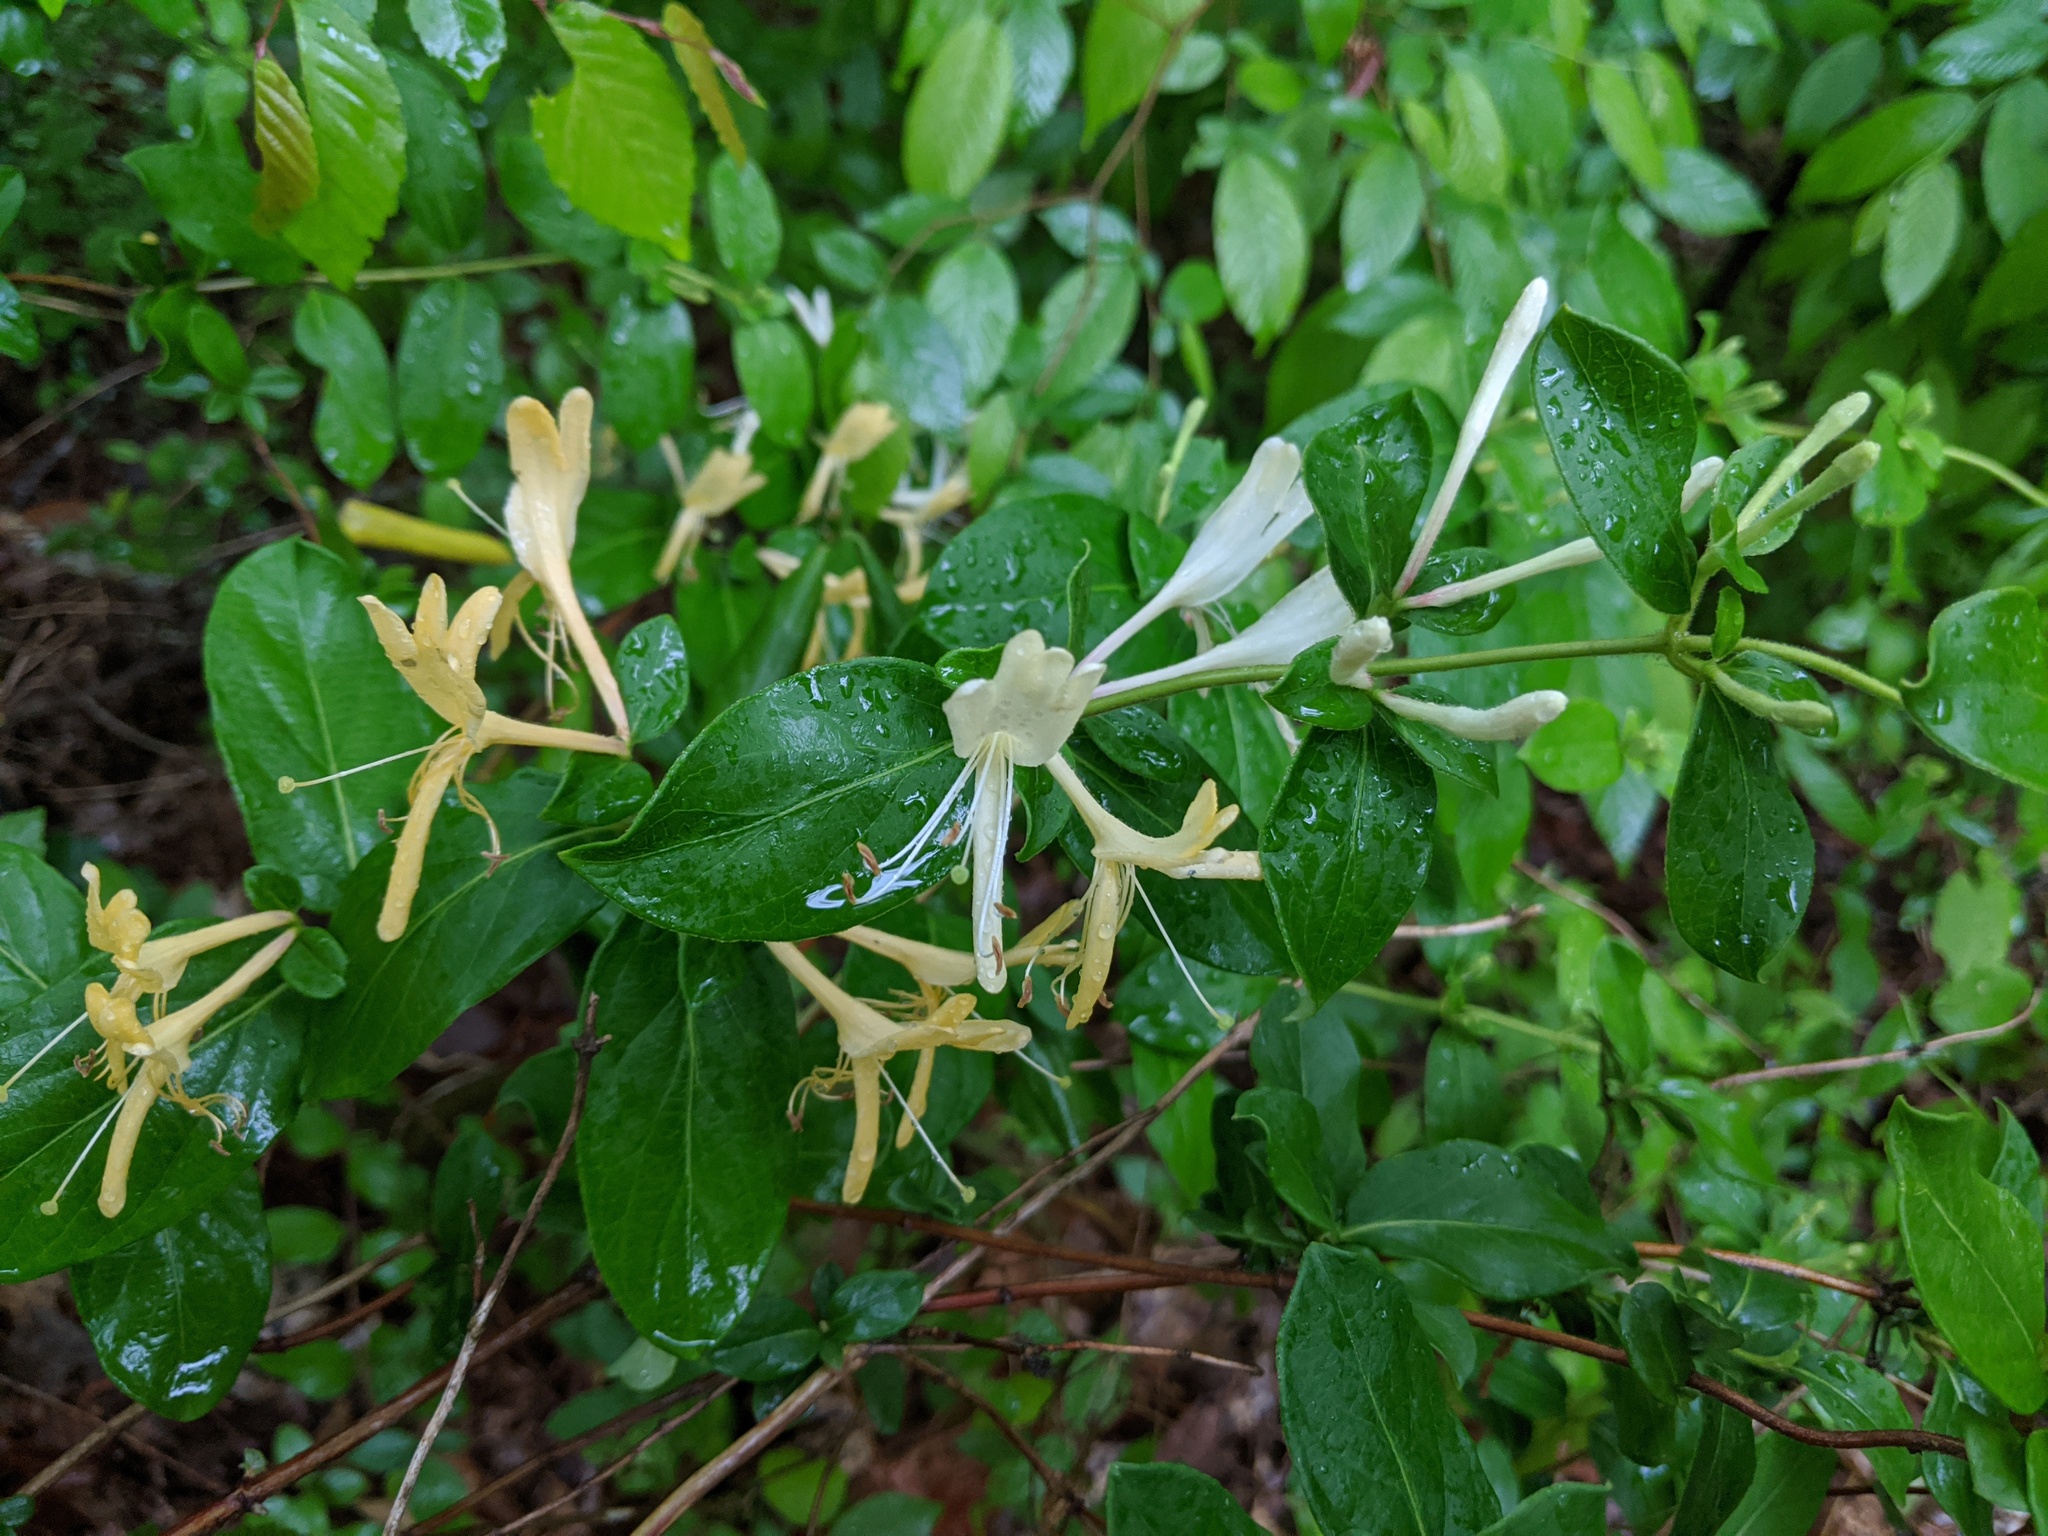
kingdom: Plantae
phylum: Tracheophyta
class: Magnoliopsida
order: Dipsacales
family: Caprifoliaceae
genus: Lonicera
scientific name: Lonicera japonica
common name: Japanese honeysuckle
